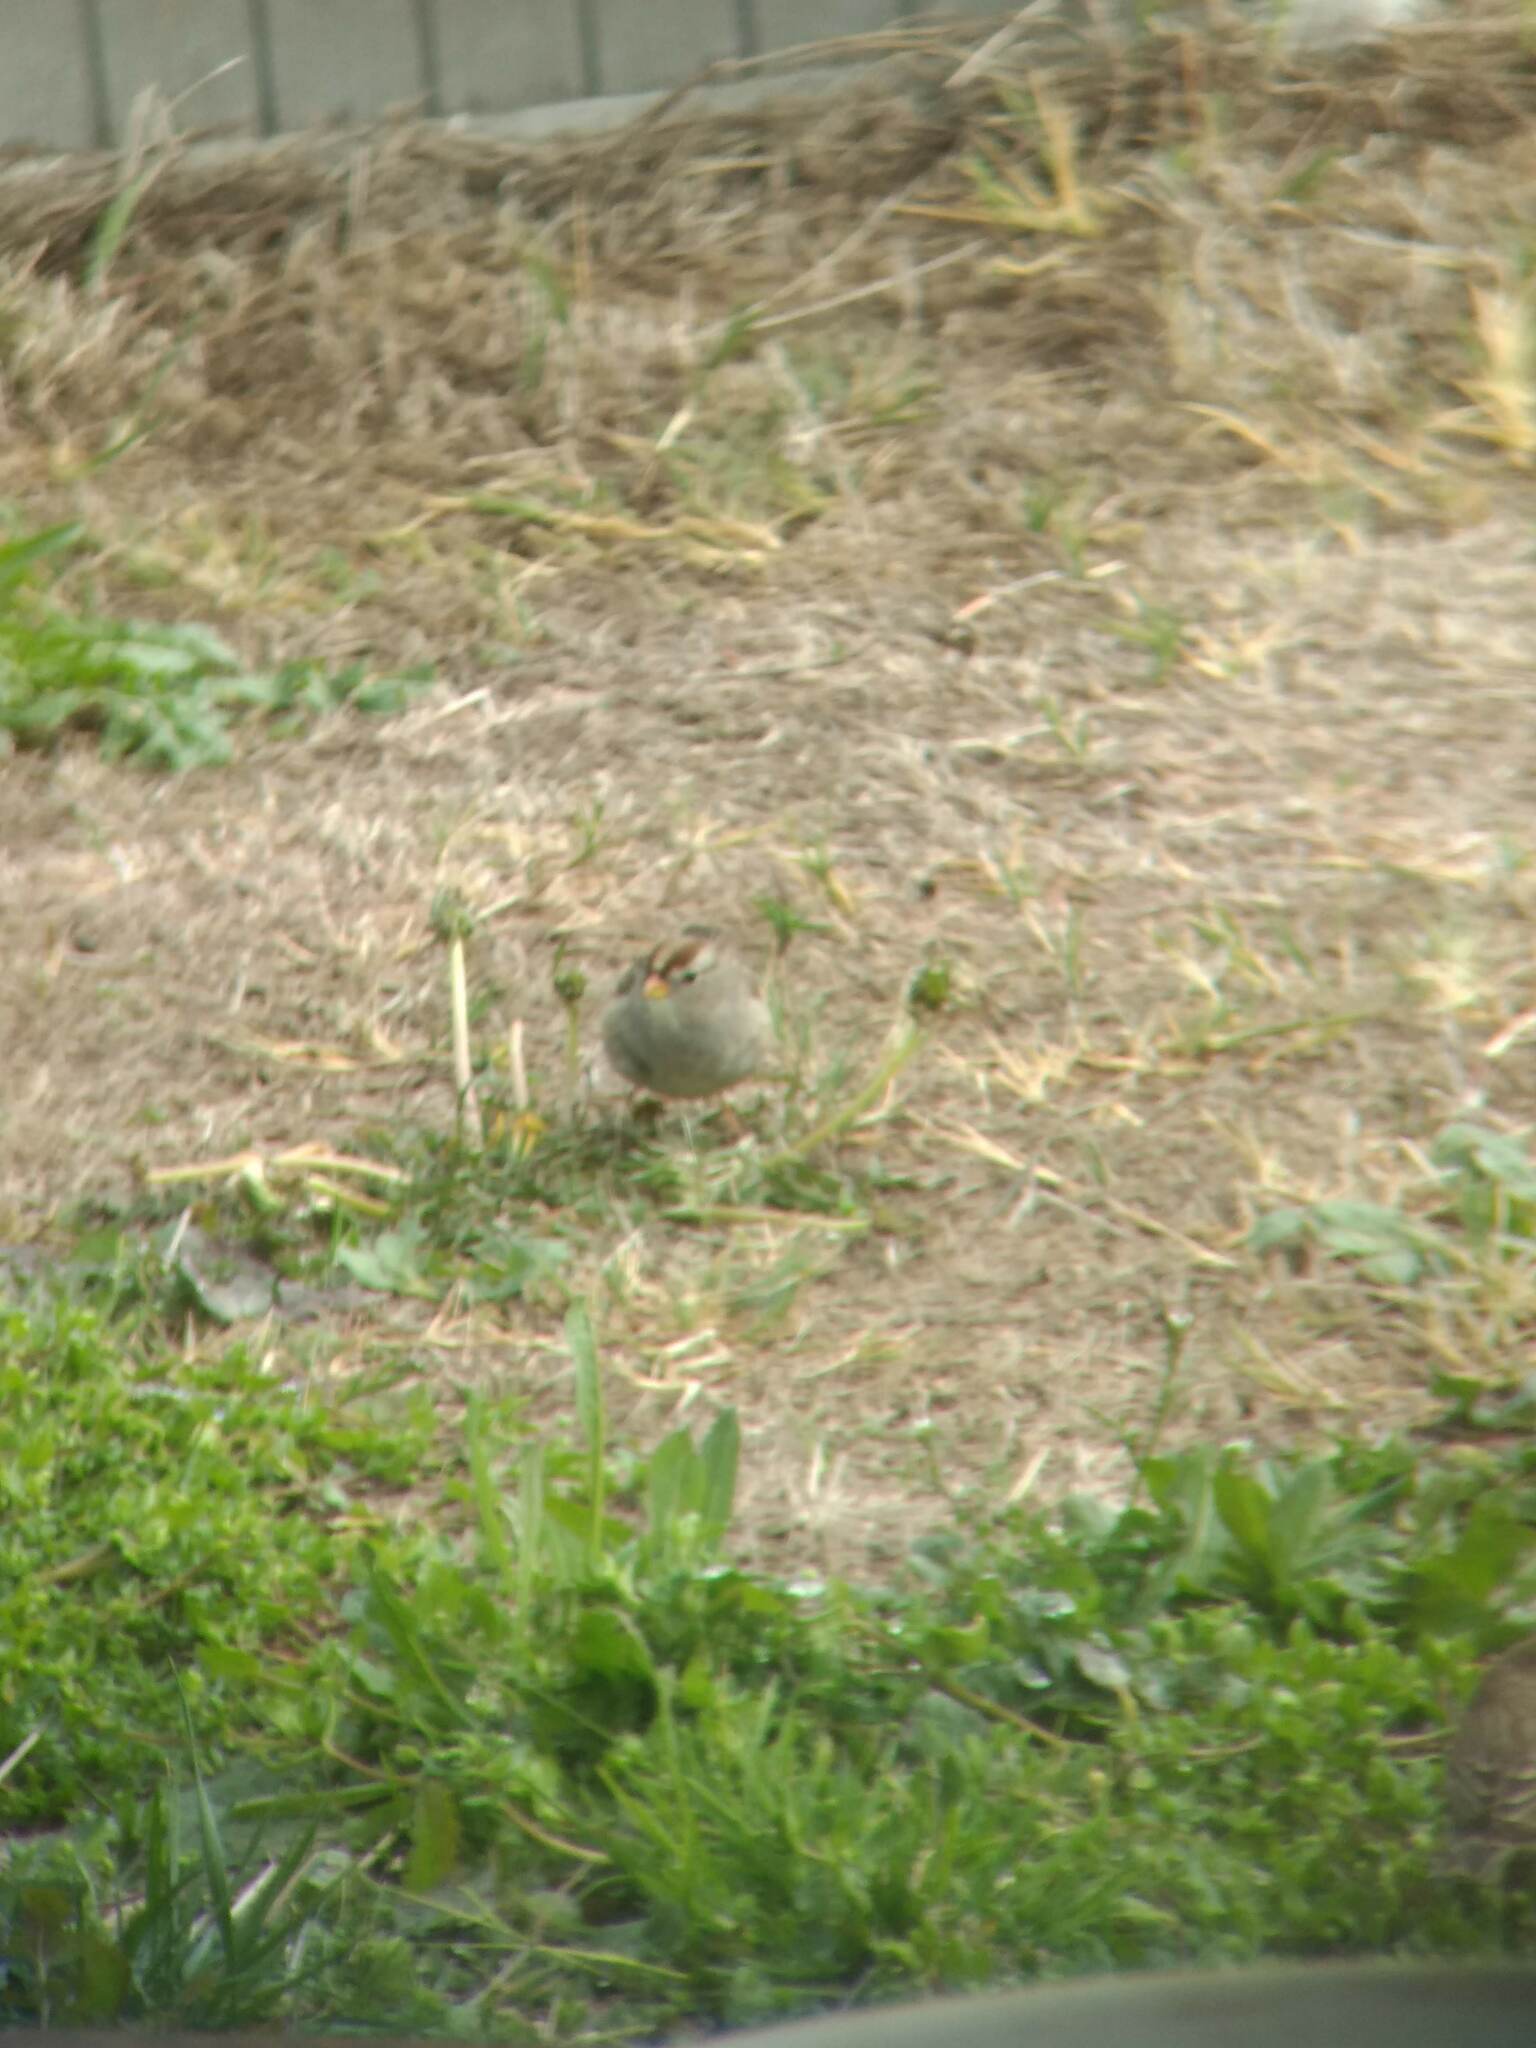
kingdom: Animalia
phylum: Chordata
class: Aves
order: Passeriformes
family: Passerellidae
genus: Zonotrichia
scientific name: Zonotrichia leucophrys
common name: White-crowned sparrow
